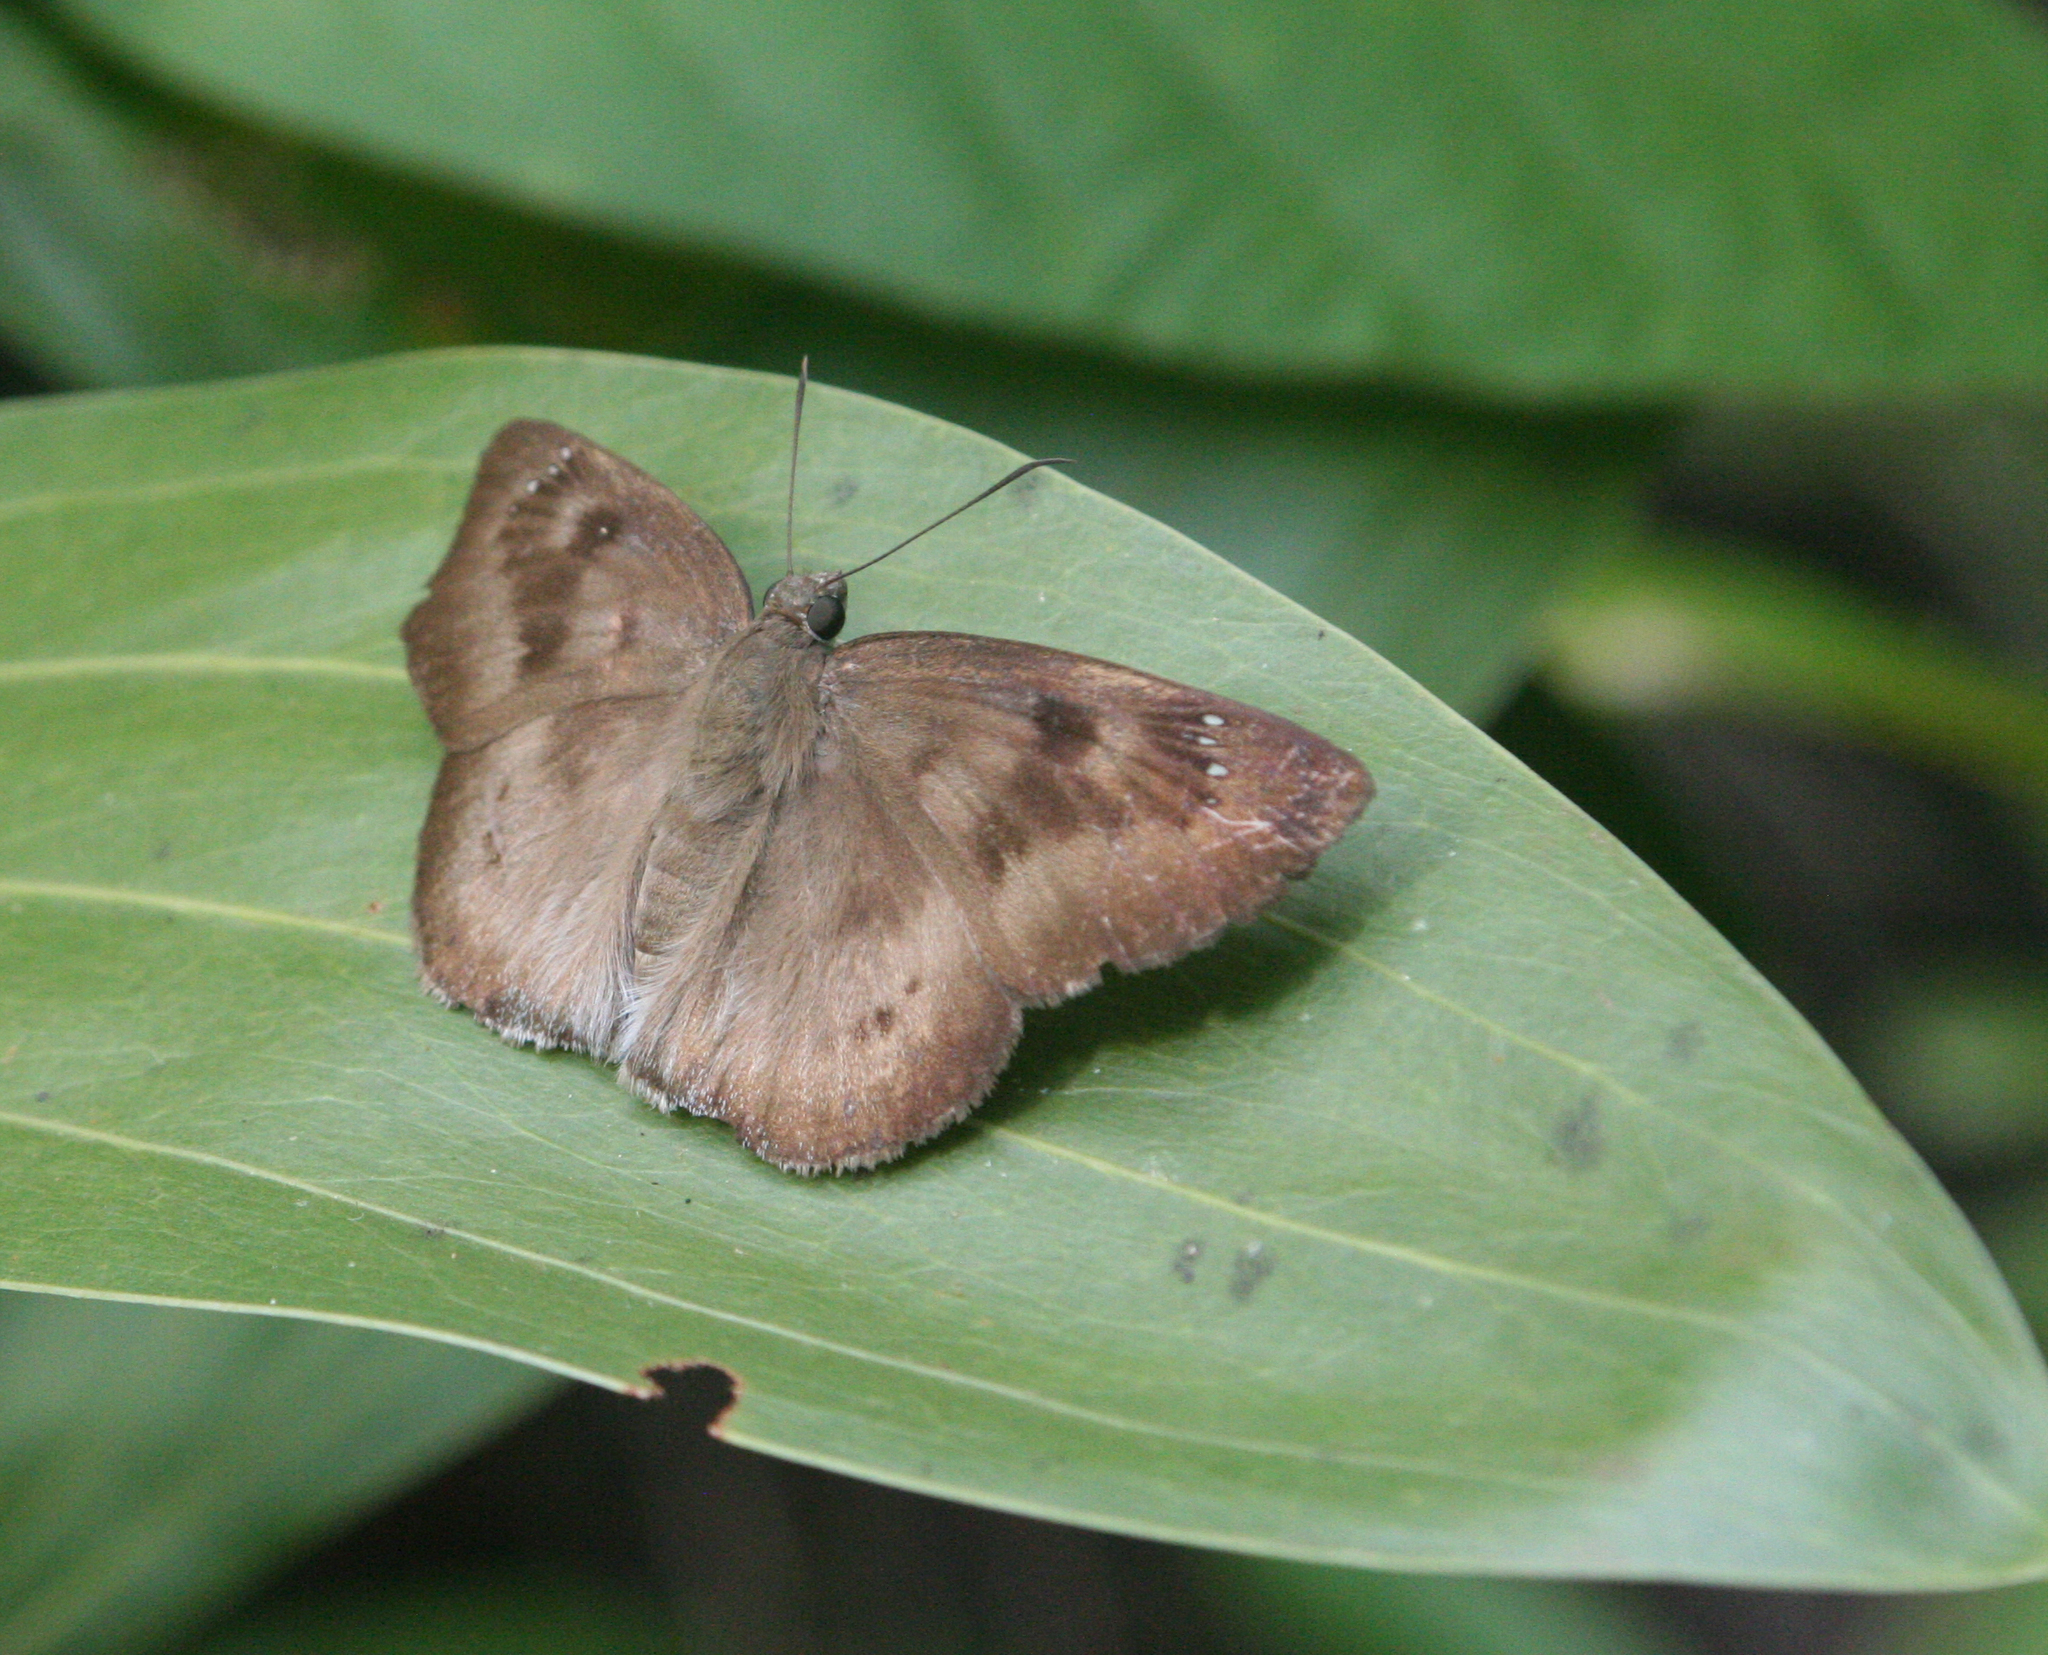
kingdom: Animalia
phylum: Arthropoda
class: Insecta
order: Lepidoptera
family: Hesperiidae
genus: Tagiades
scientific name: Tagiades gana
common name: Suffused snow flat
